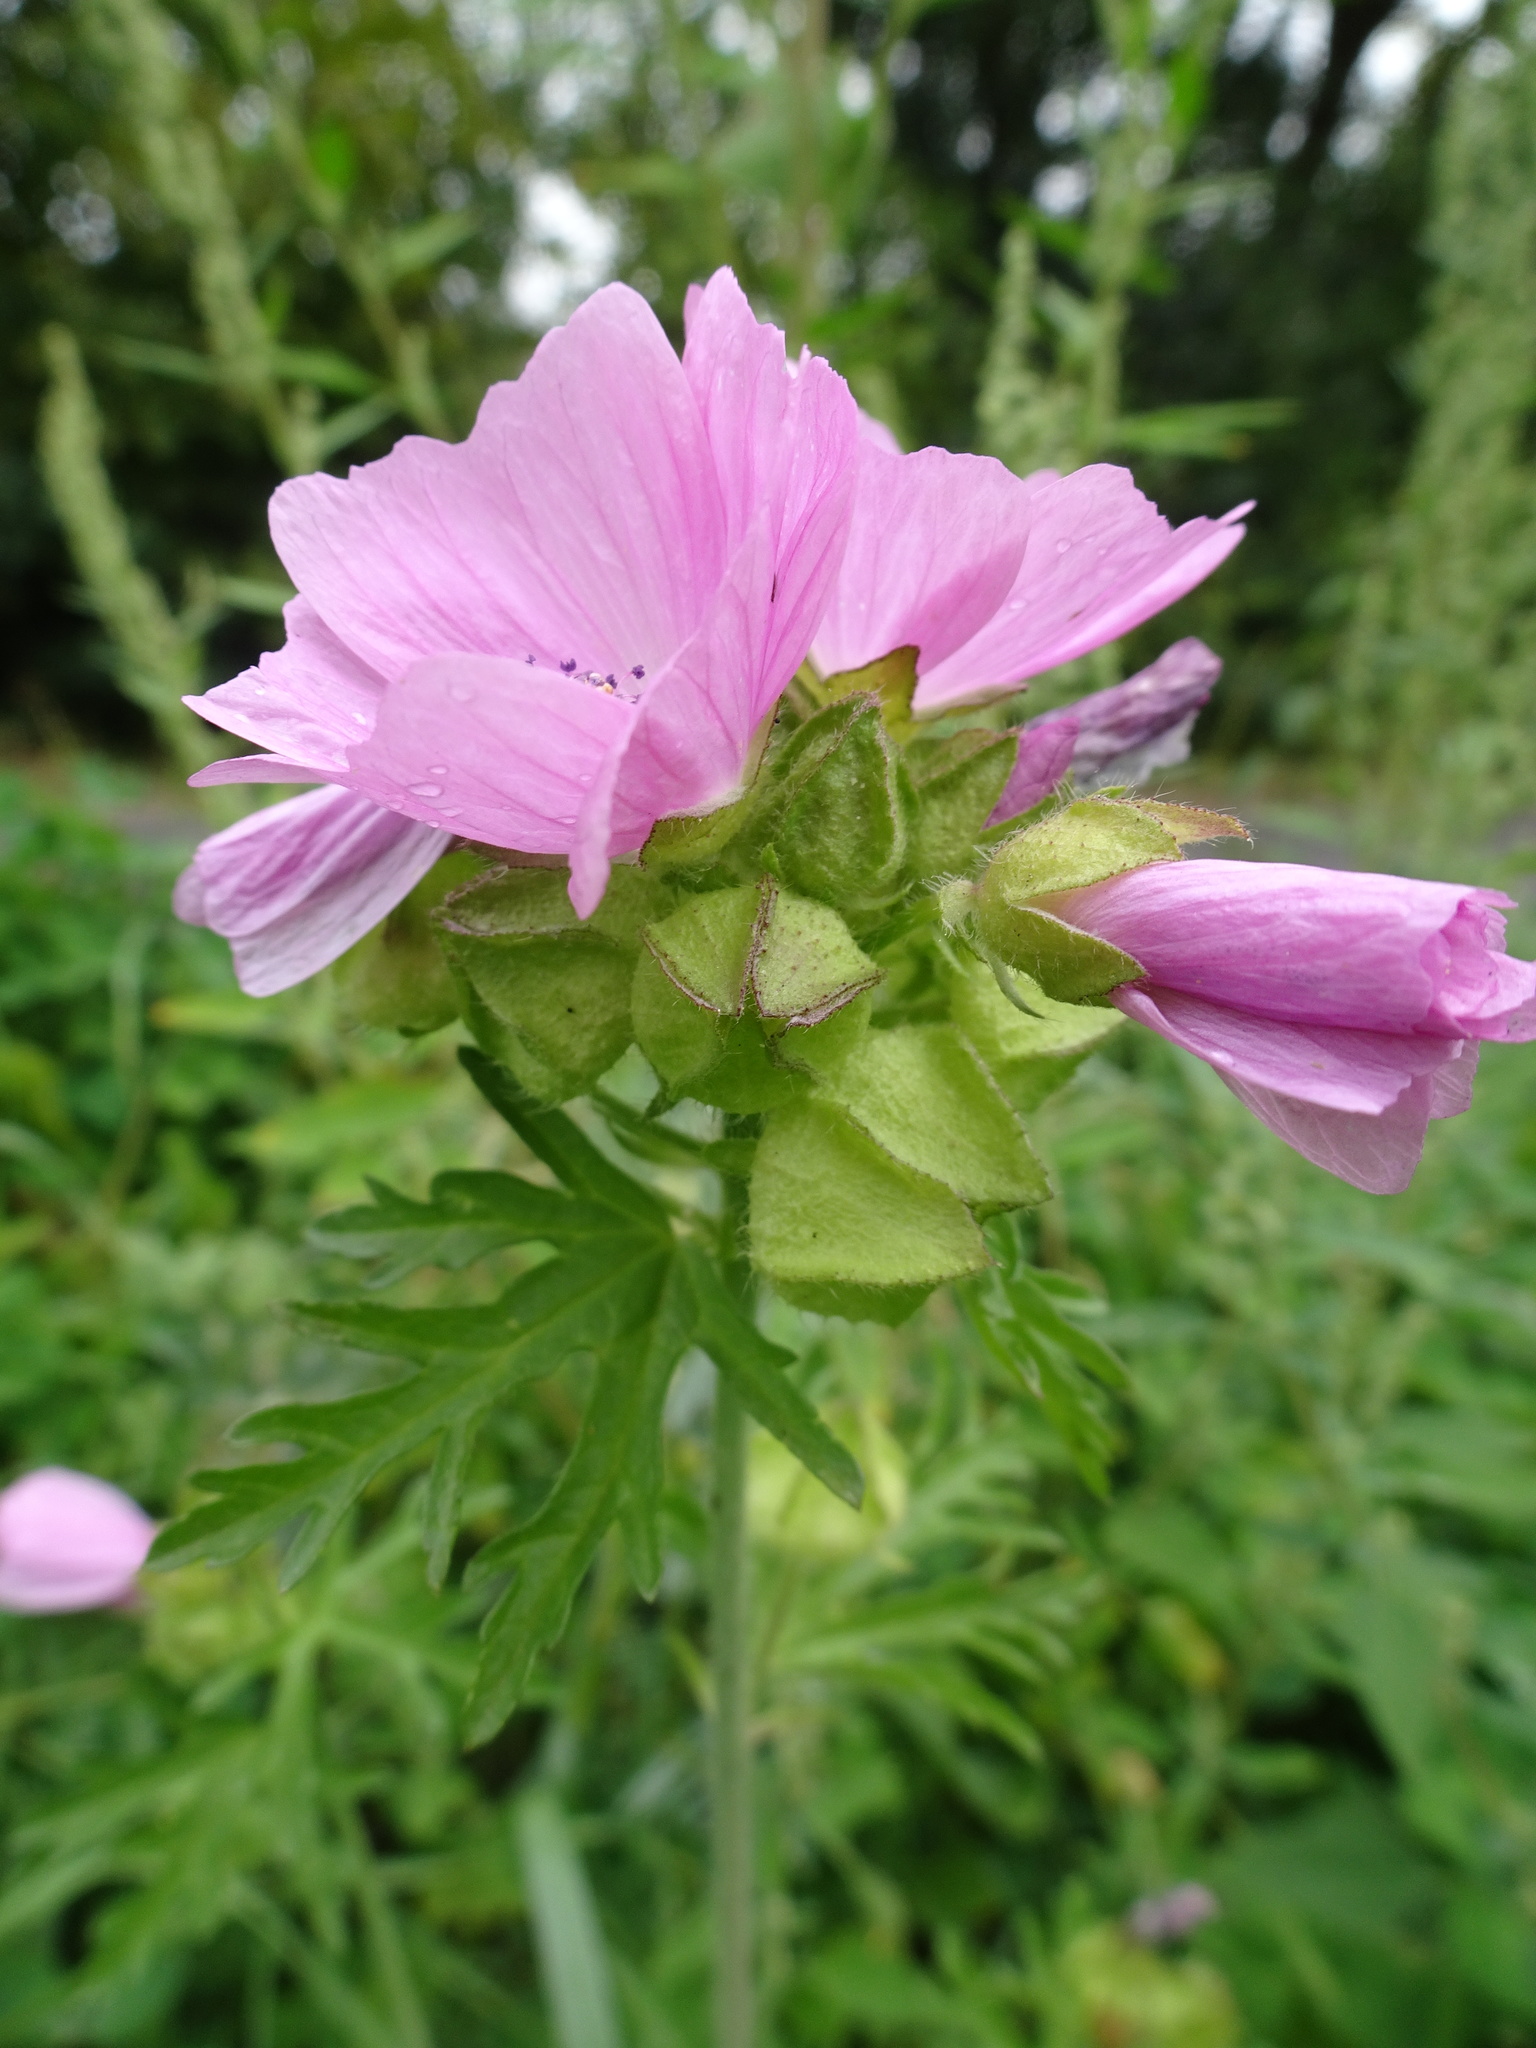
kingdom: Plantae
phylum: Tracheophyta
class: Magnoliopsida
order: Malvales
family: Malvaceae
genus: Malva
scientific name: Malva moschata
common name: Musk mallow
